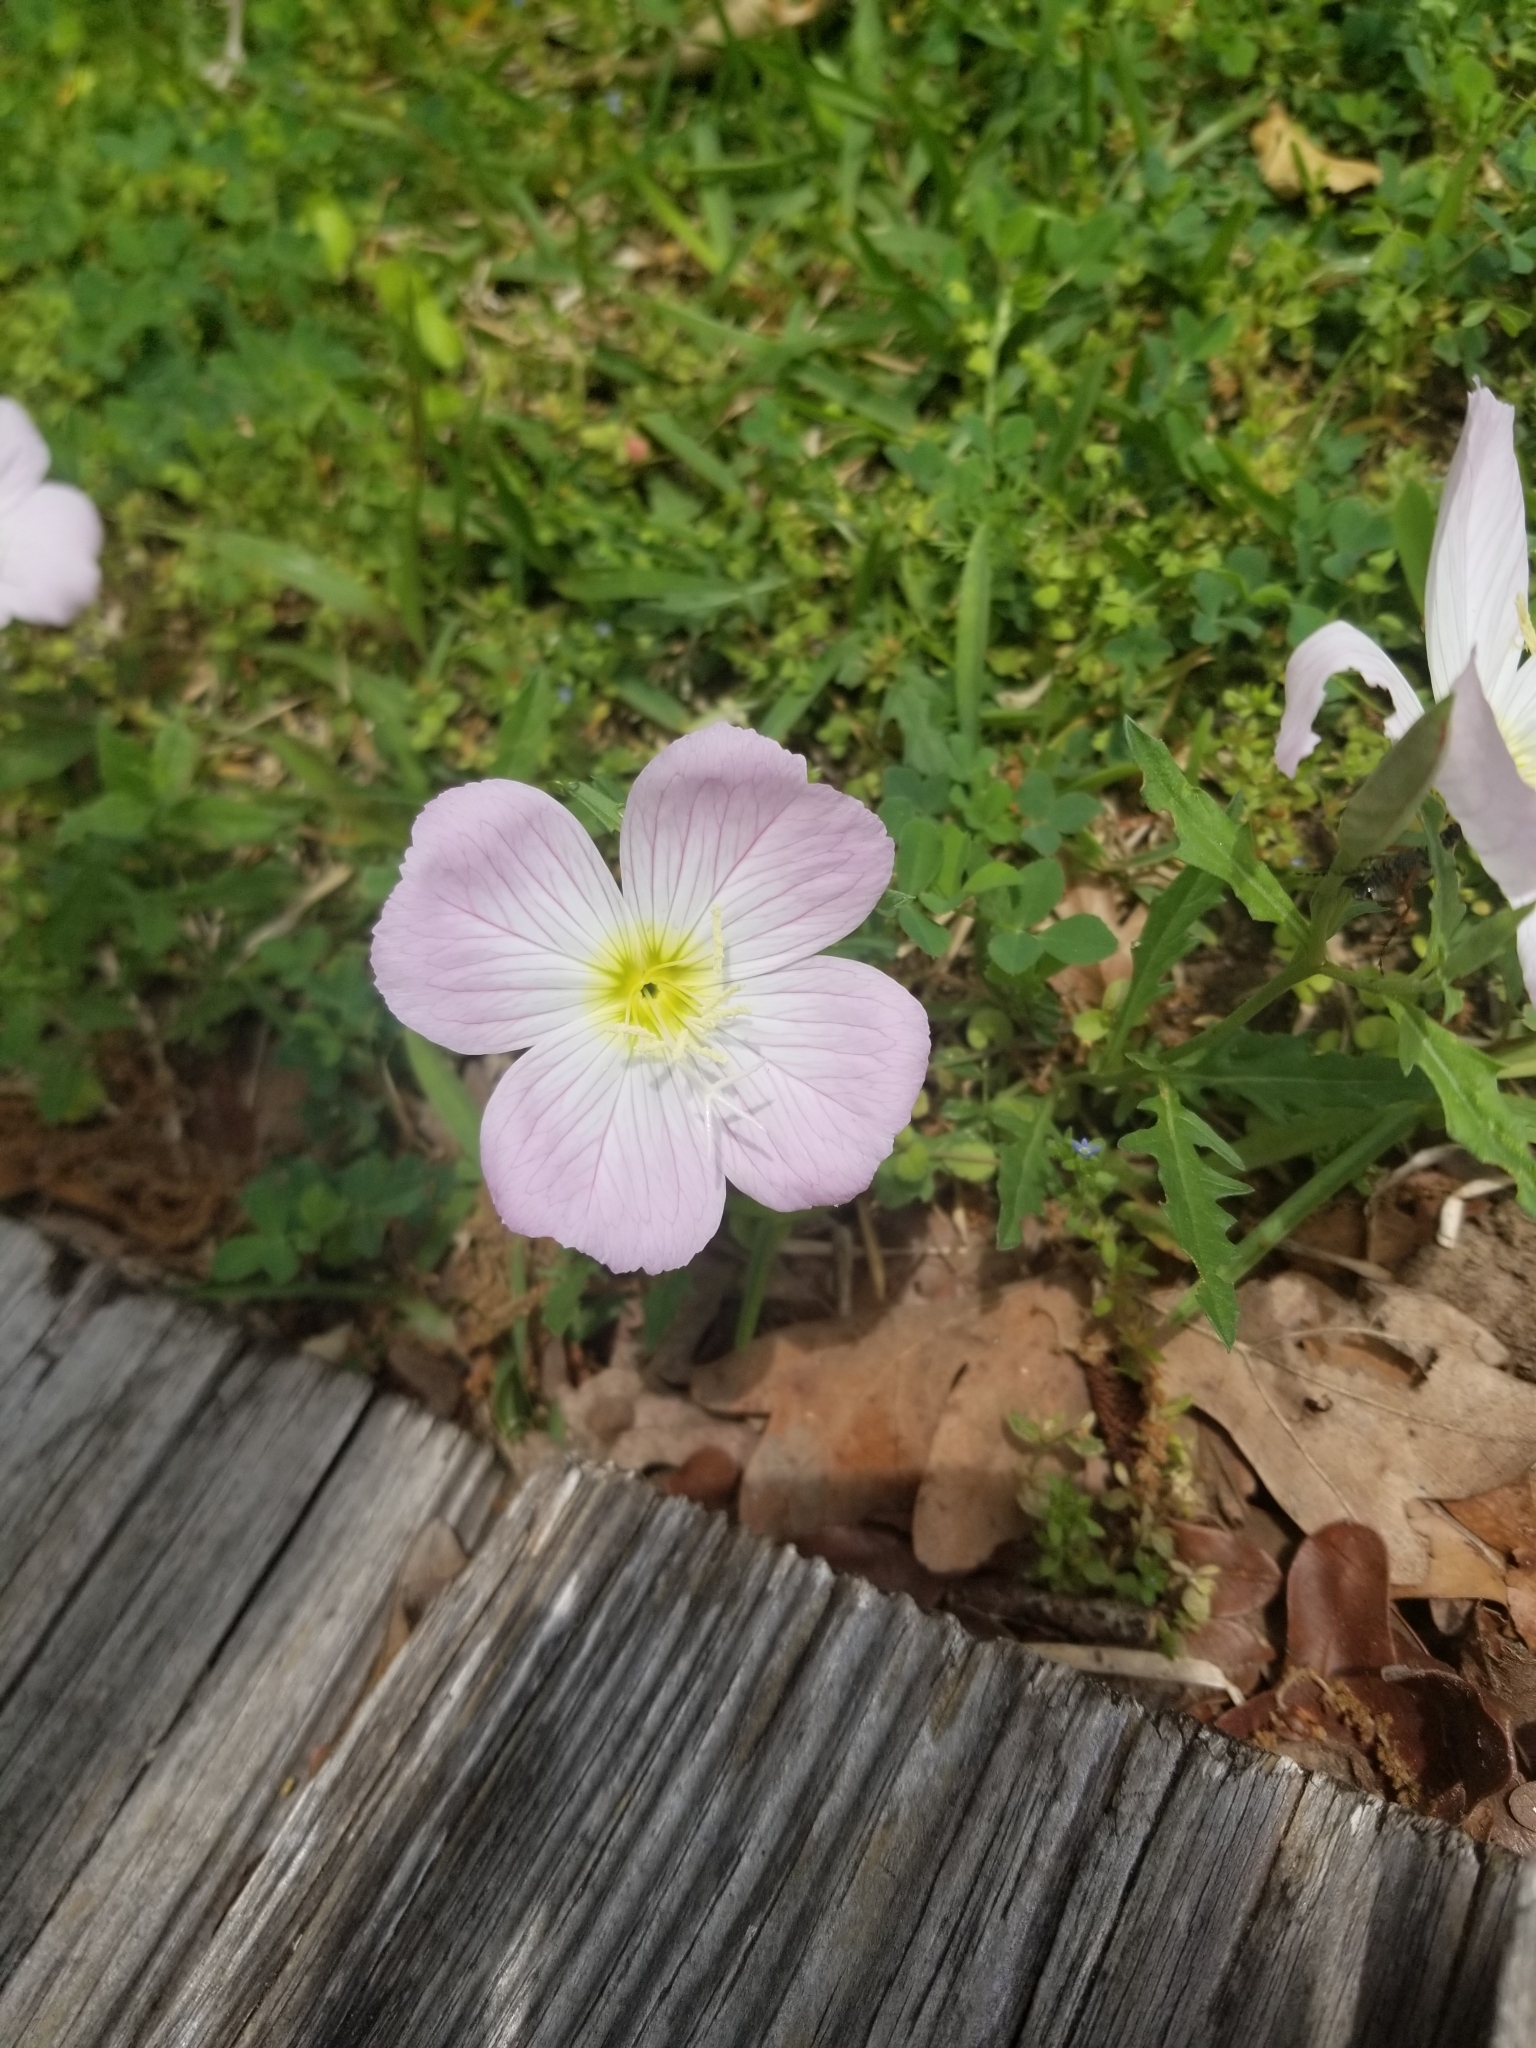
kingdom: Plantae
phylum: Tracheophyta
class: Magnoliopsida
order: Myrtales
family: Onagraceae
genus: Oenothera
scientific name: Oenothera speciosa
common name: White evening-primrose
